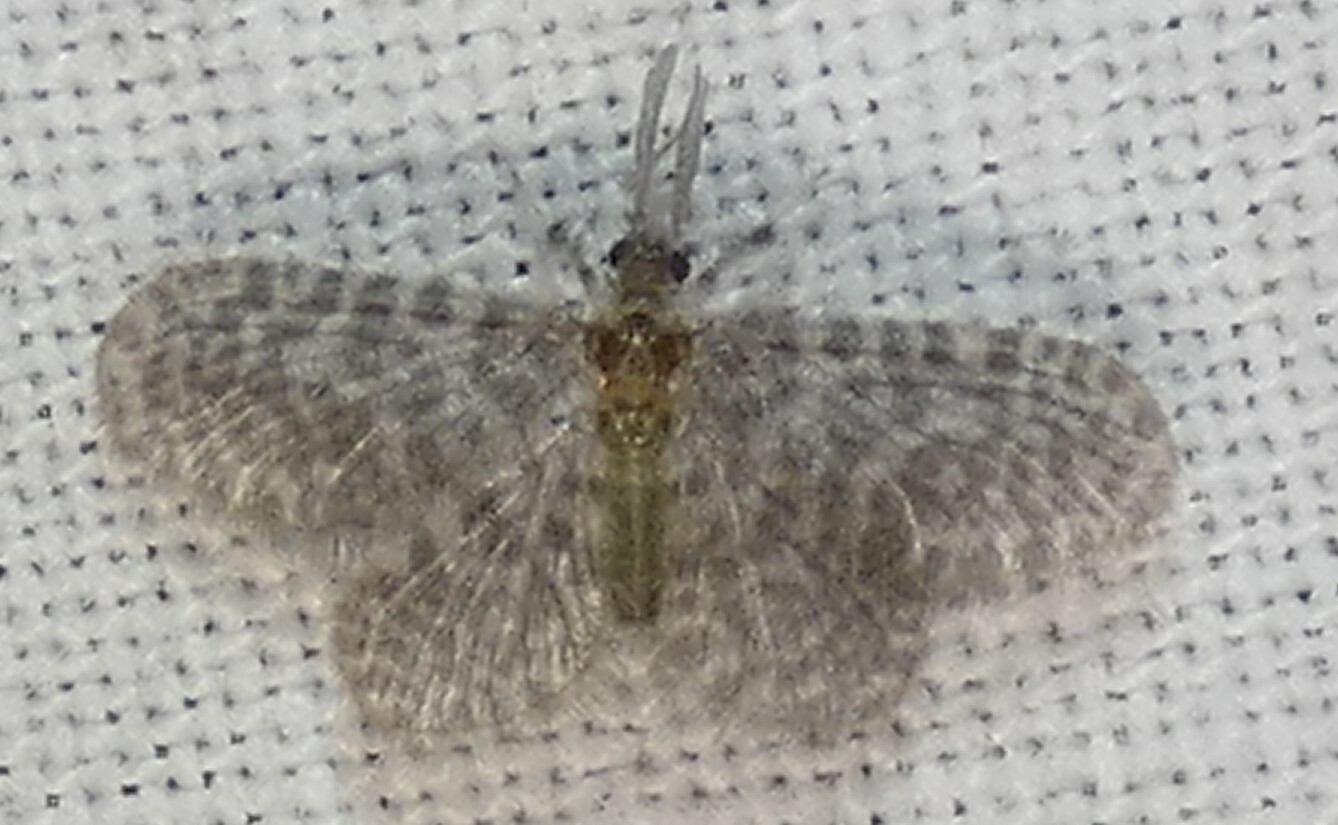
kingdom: Animalia
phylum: Arthropoda
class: Insecta
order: Neuroptera
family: Dilaridae
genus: Nallachius
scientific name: Nallachius americanus
